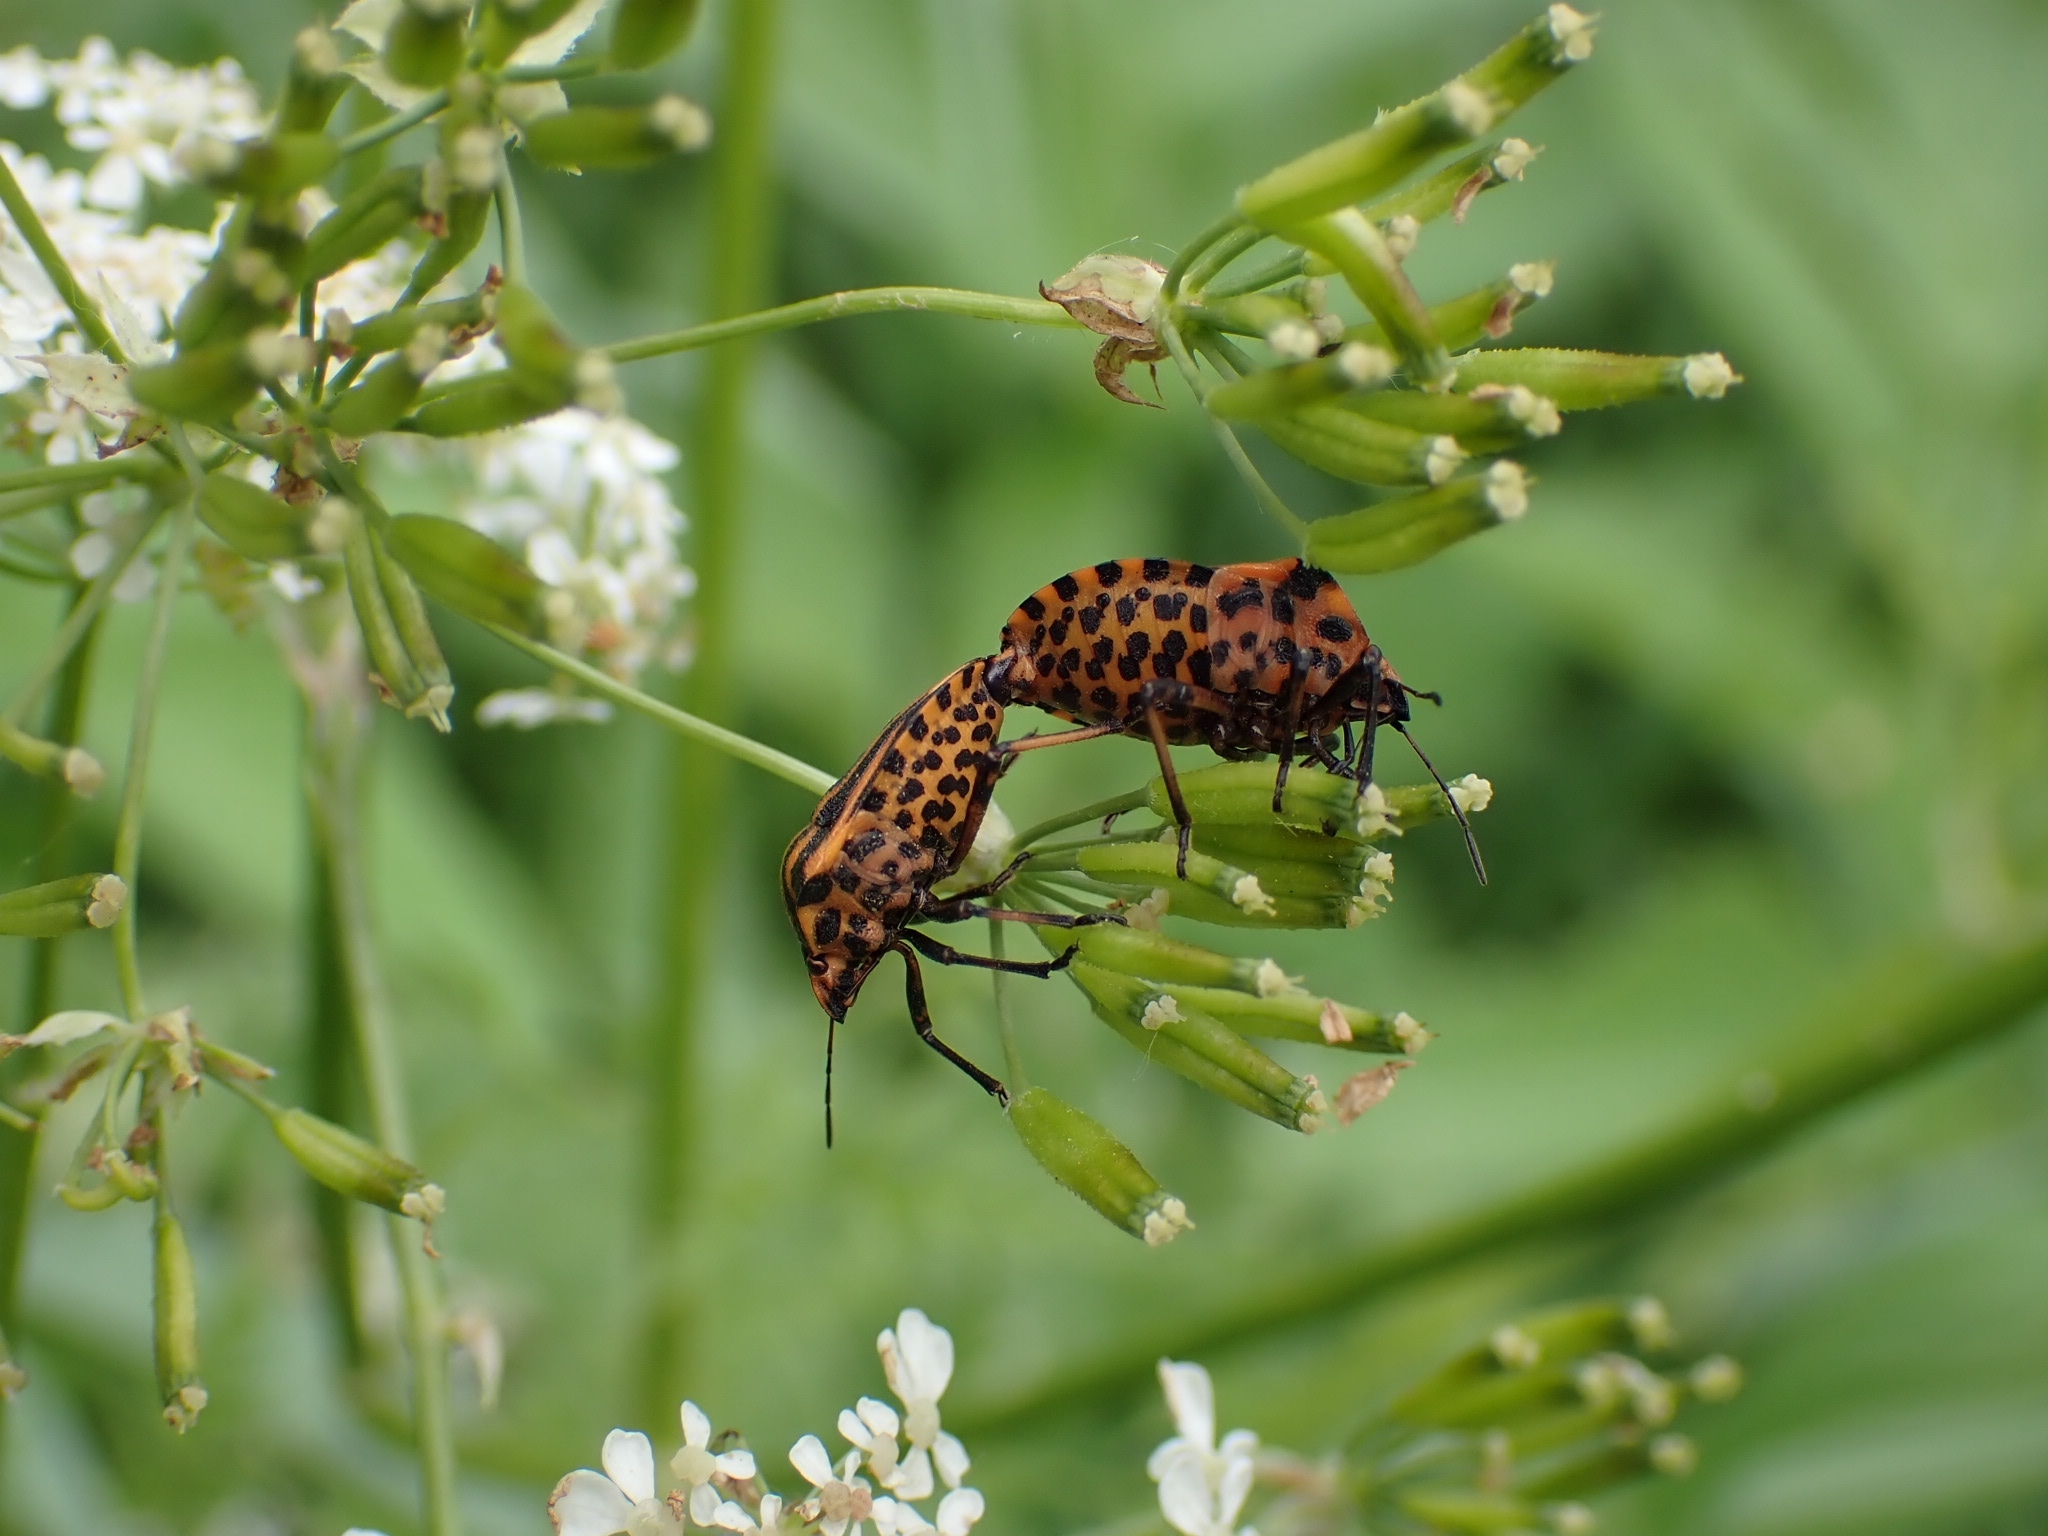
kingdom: Animalia
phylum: Arthropoda
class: Insecta
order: Hemiptera
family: Pentatomidae
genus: Graphosoma
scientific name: Graphosoma italicum
